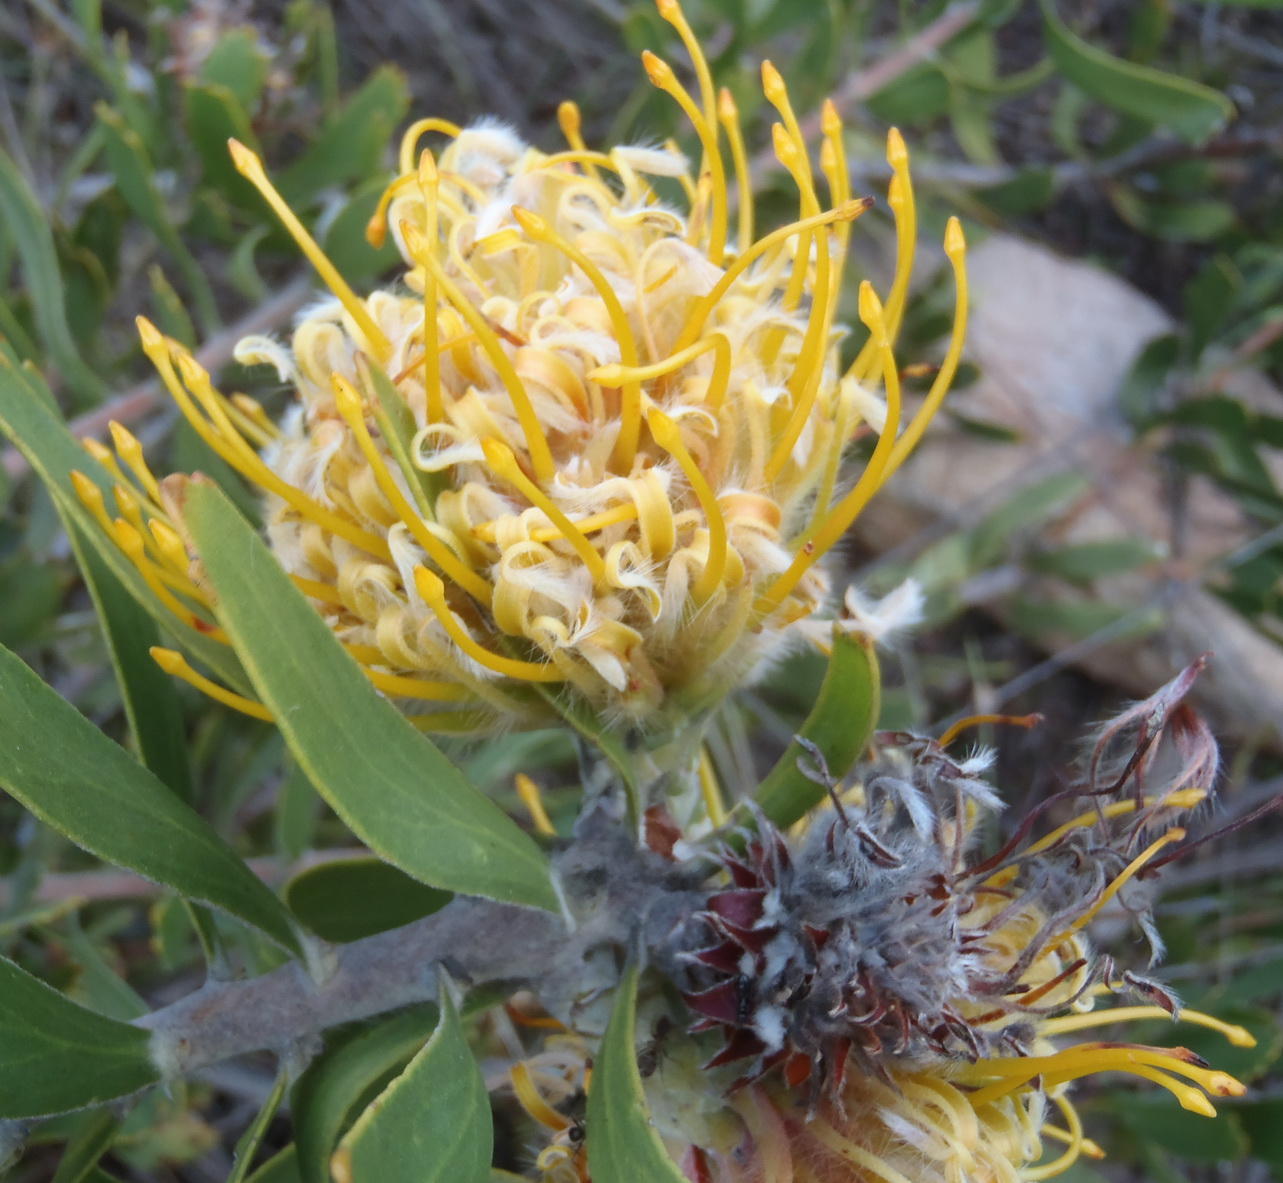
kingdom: Plantae
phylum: Tracheophyta
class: Magnoliopsida
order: Proteales
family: Proteaceae
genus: Leucospermum
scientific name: Leucospermum cuneiforme
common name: Common pincushion
